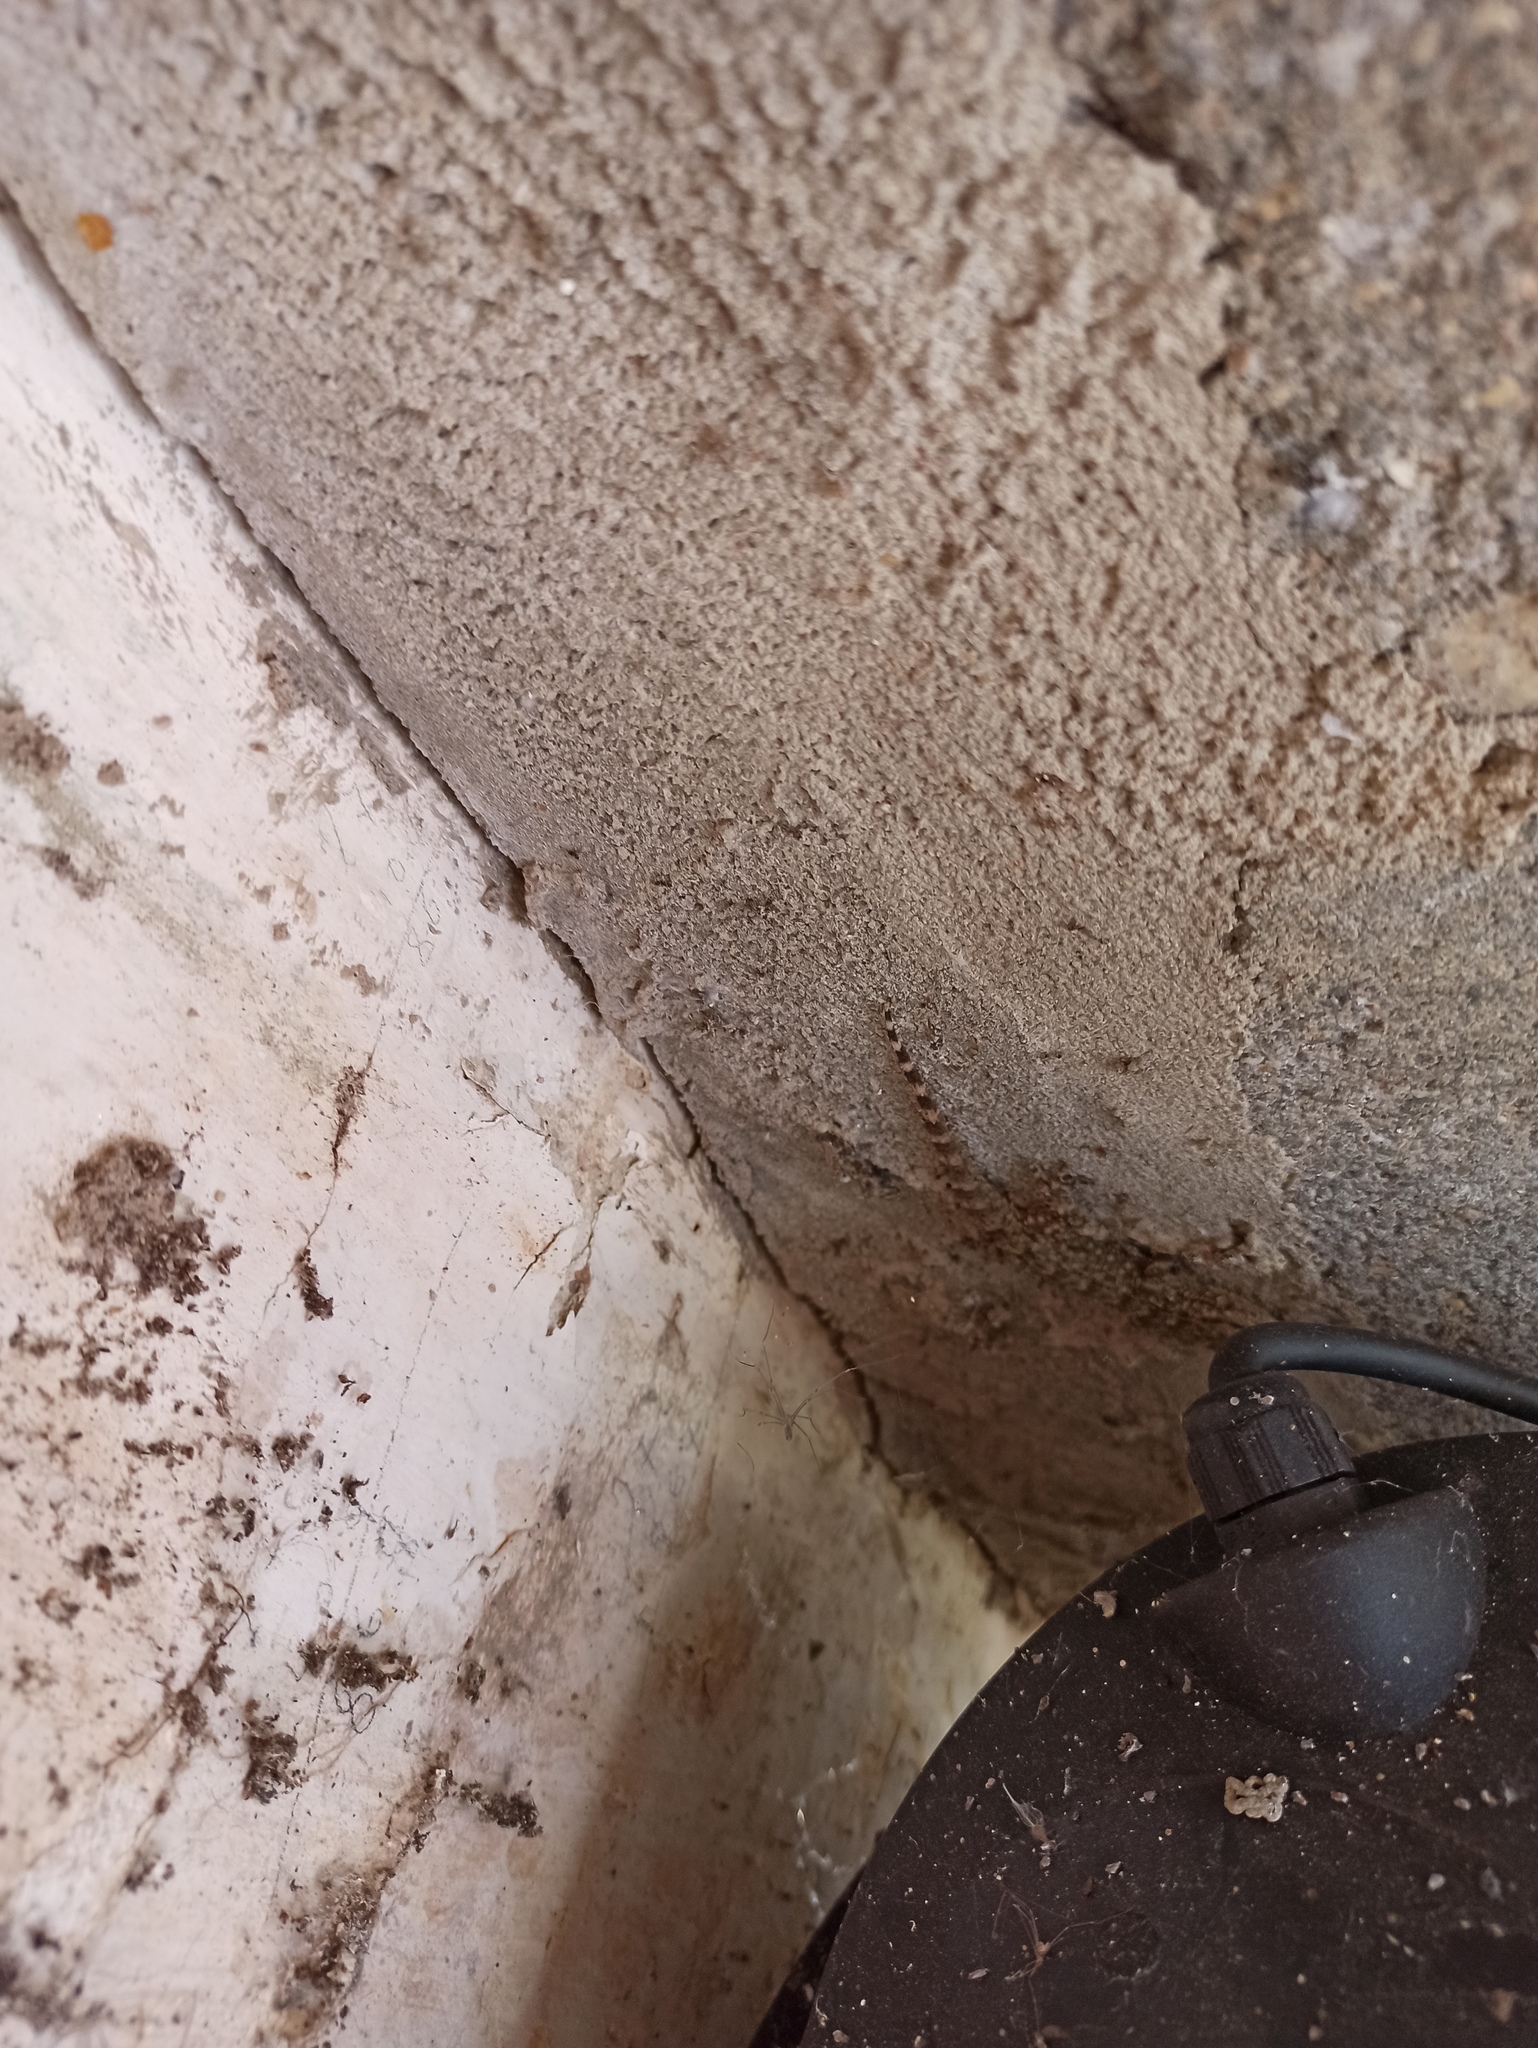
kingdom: Animalia
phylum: Chordata
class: Squamata
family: Phyllodactylidae
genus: Tarentola
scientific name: Tarentola mauritanica
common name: Moorish gecko
